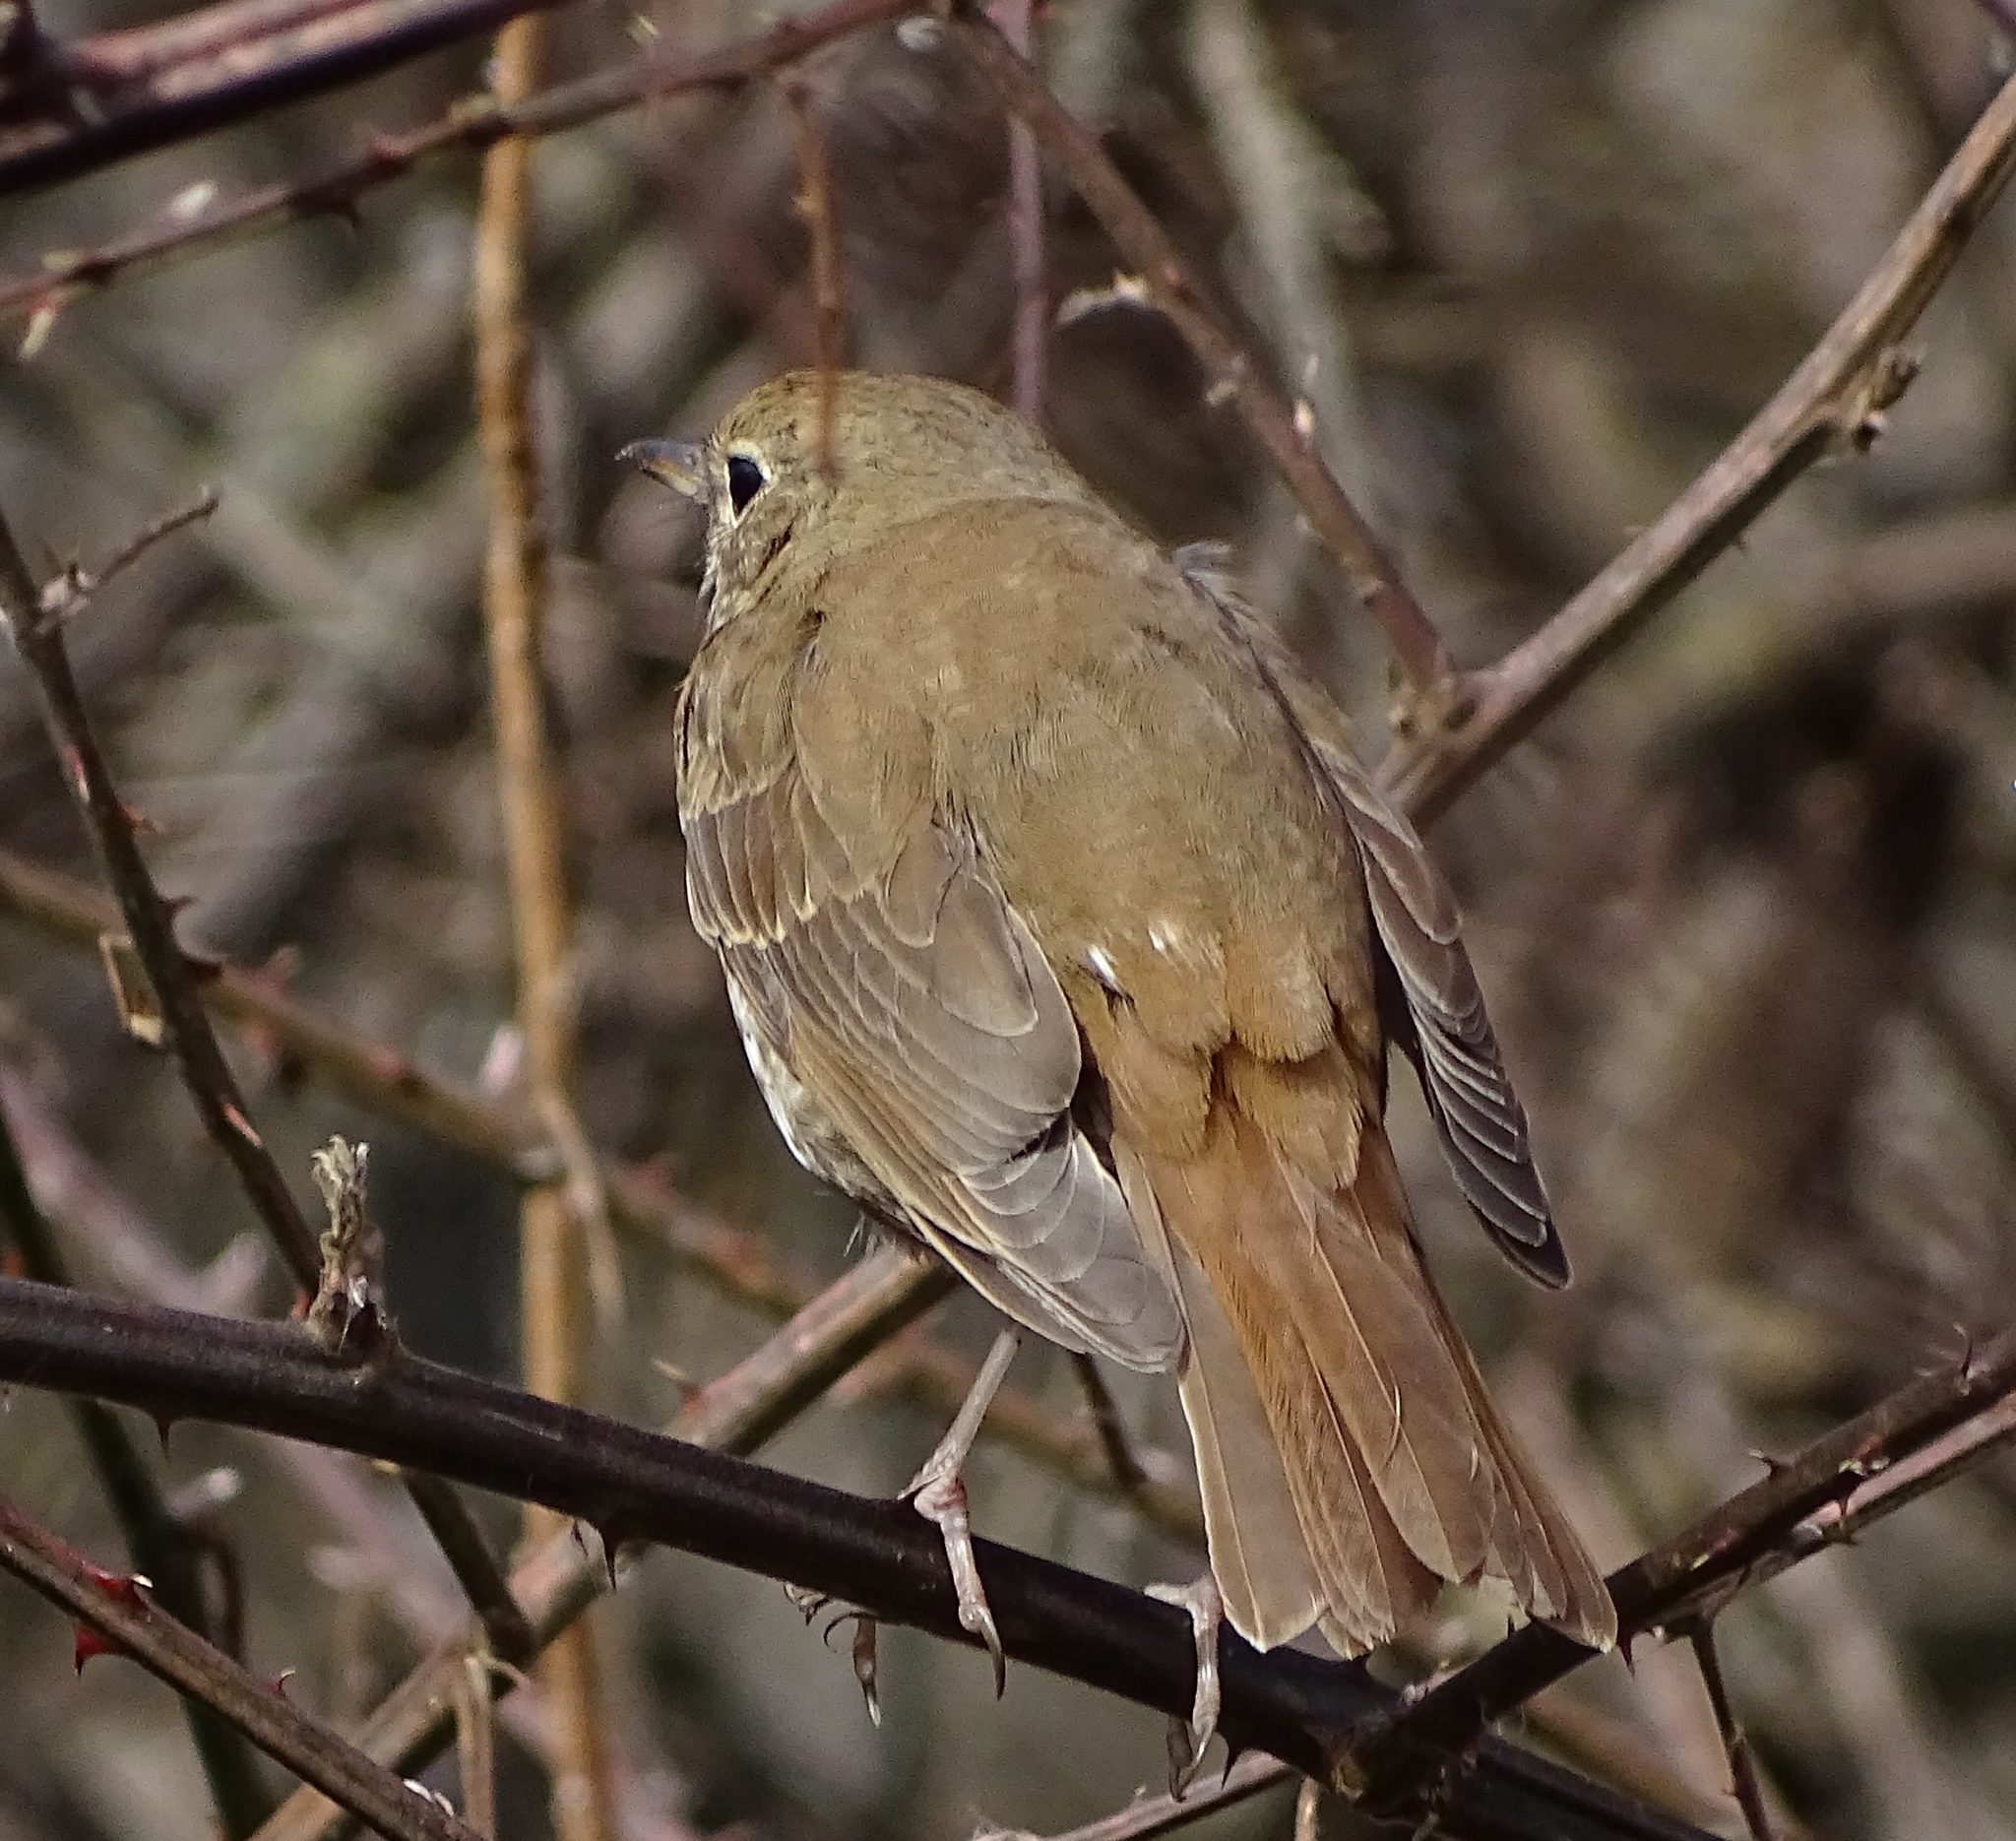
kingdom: Animalia
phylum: Chordata
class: Aves
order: Passeriformes
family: Turdidae
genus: Catharus
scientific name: Catharus guttatus
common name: Hermit thrush
